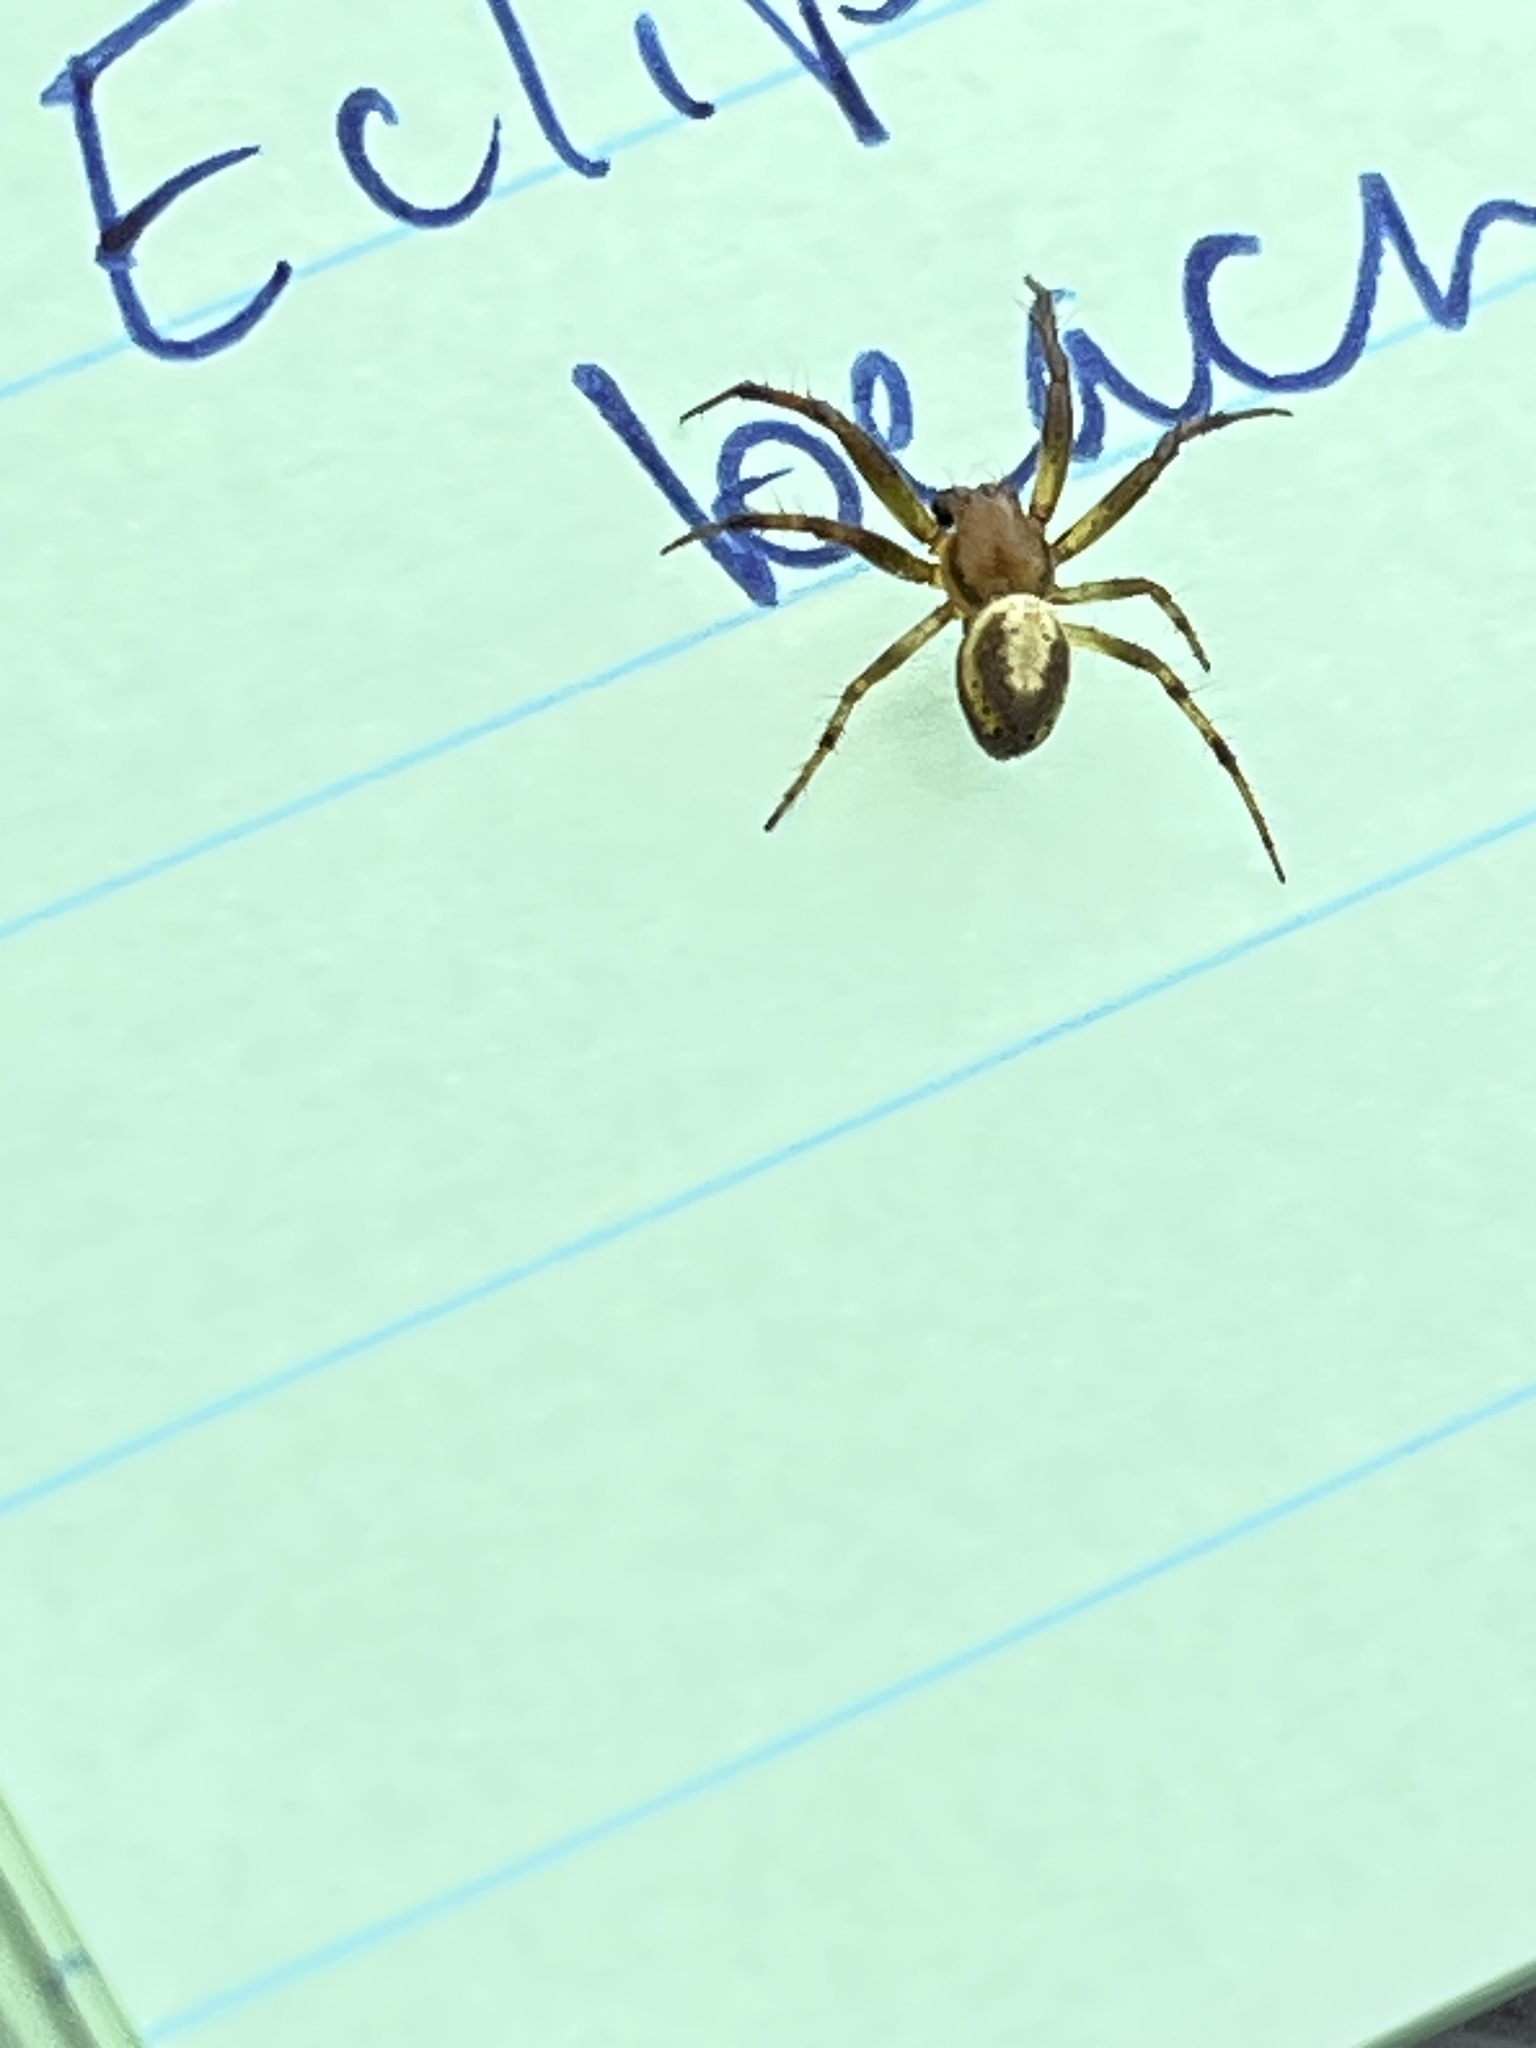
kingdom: Animalia
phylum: Arthropoda
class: Arachnida
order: Araneae
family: Araneidae
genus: Araniella
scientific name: Araniella displicata
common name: Sixspotted orb weaver
